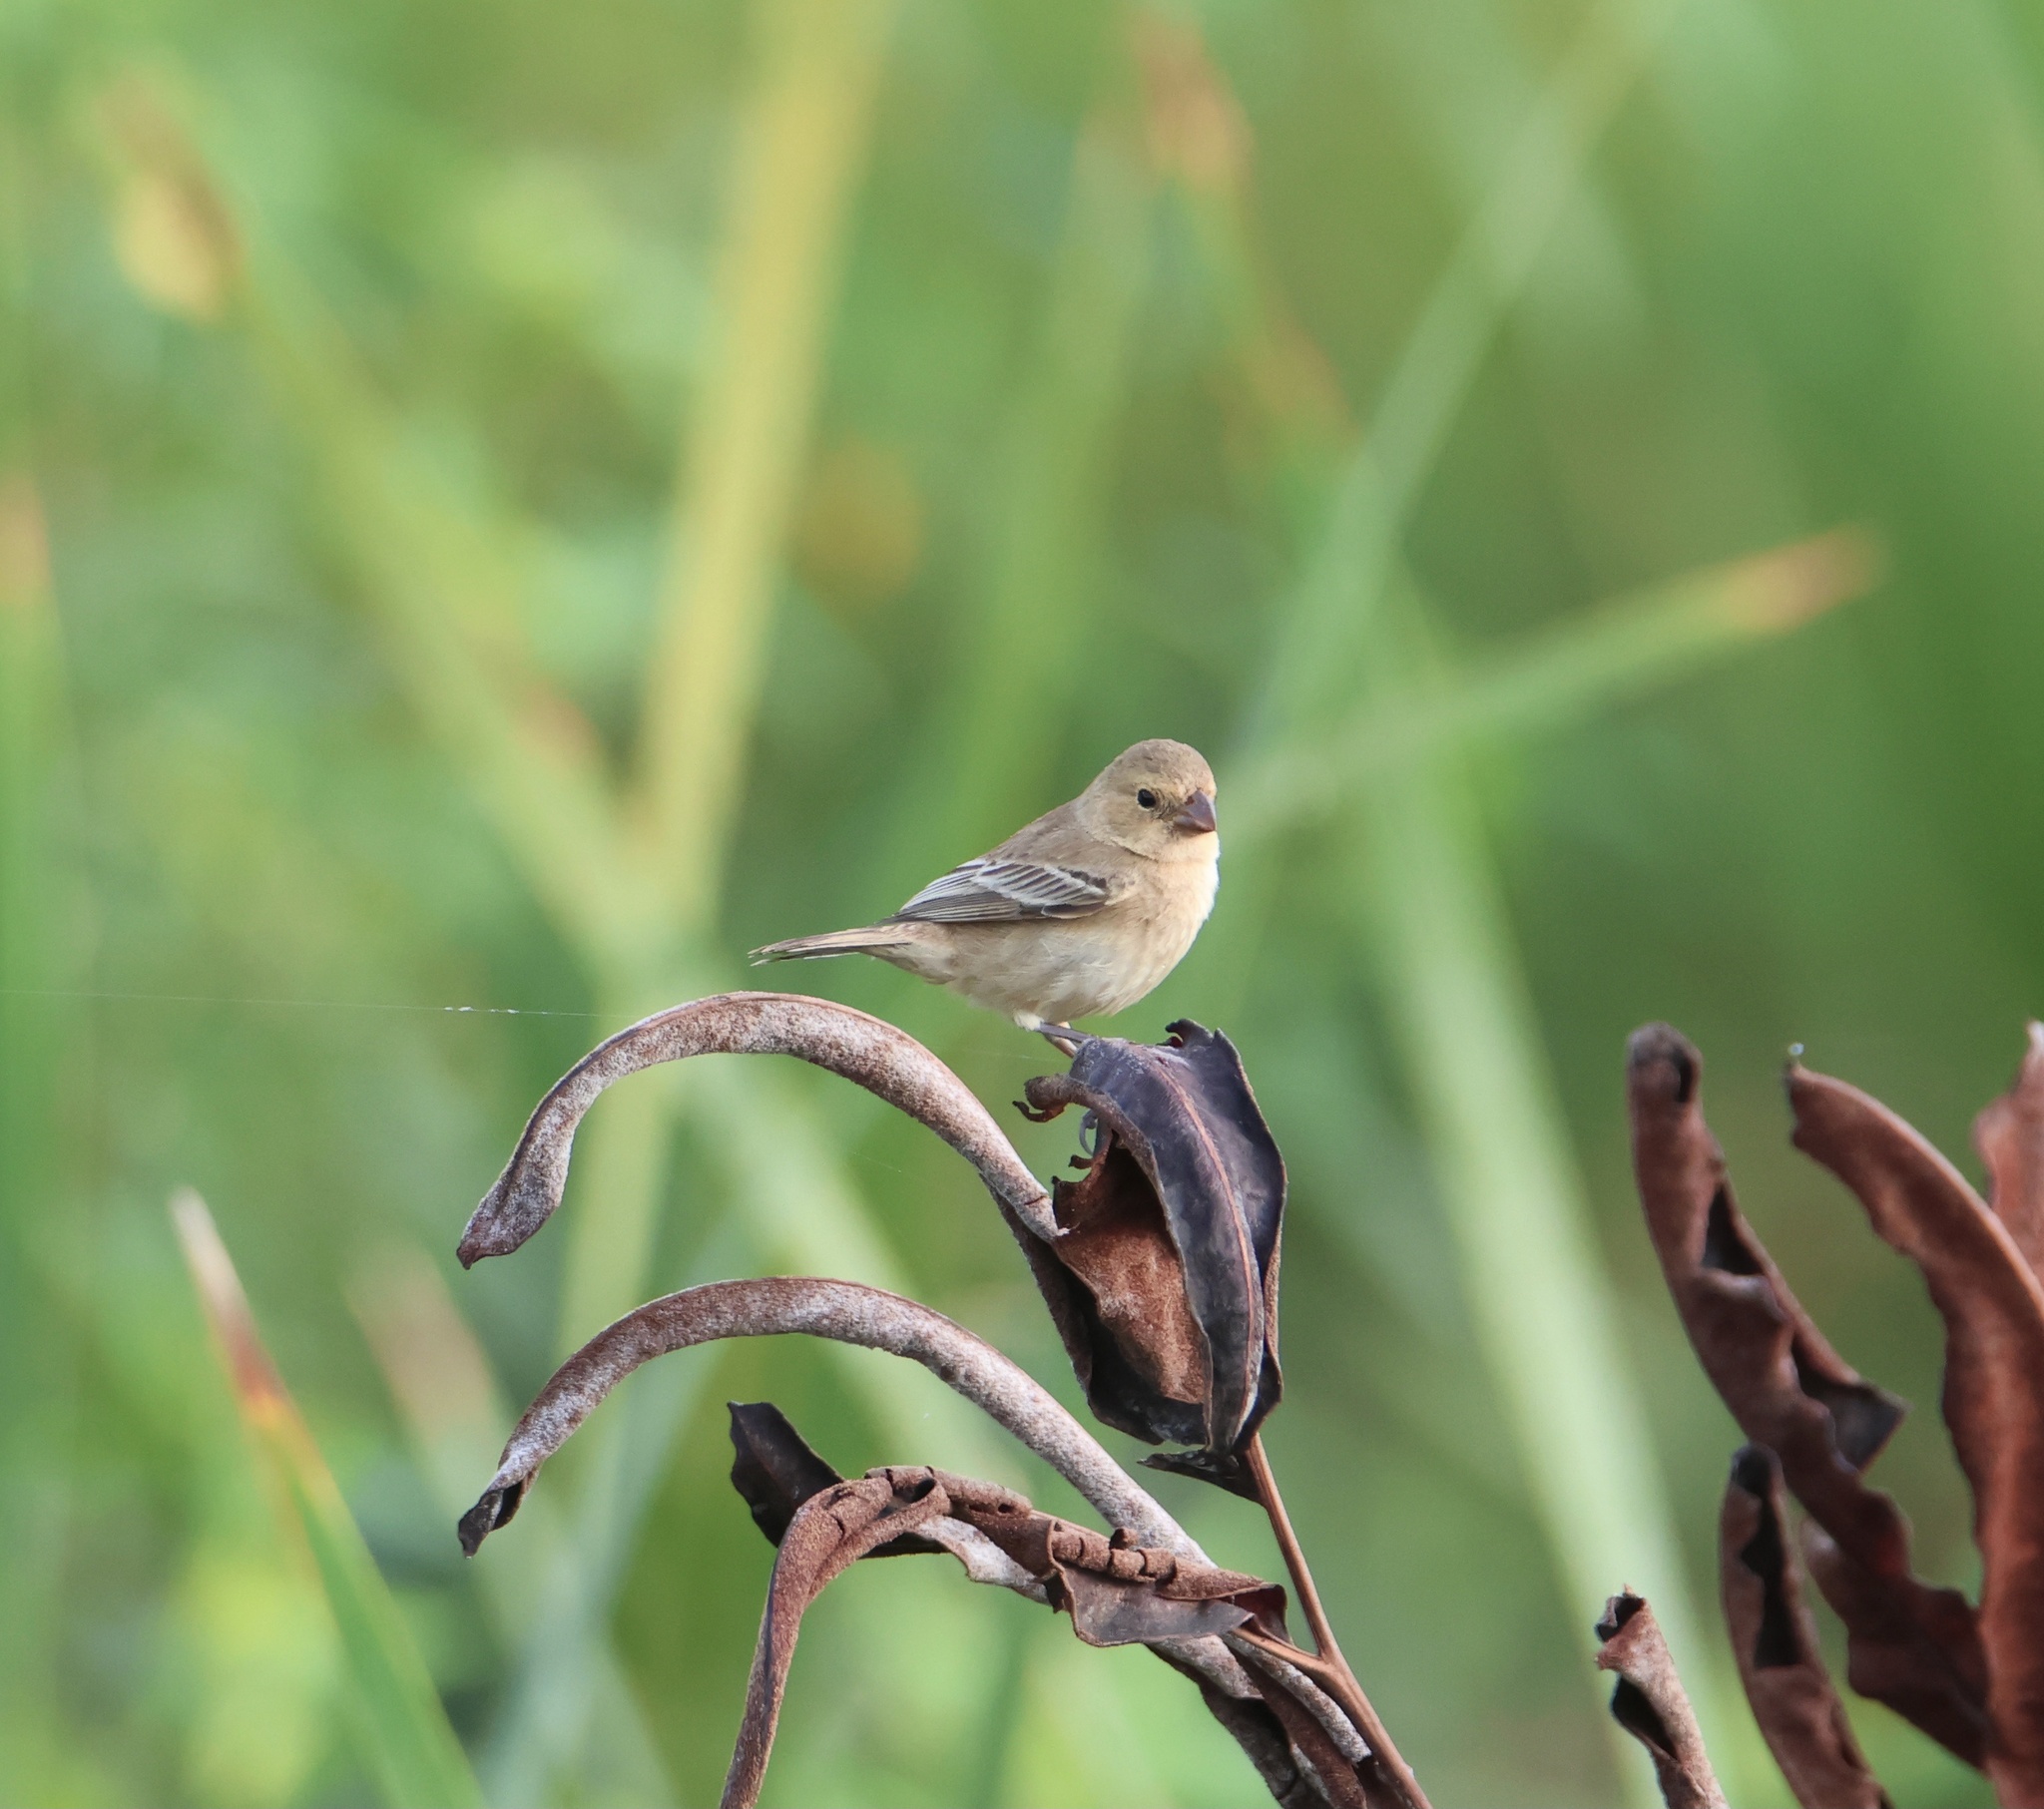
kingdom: Animalia
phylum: Chordata
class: Aves
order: Passeriformes
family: Thraupidae
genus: Sporophila
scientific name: Sporophila minuta
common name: Ruddy-breasted seedeater
